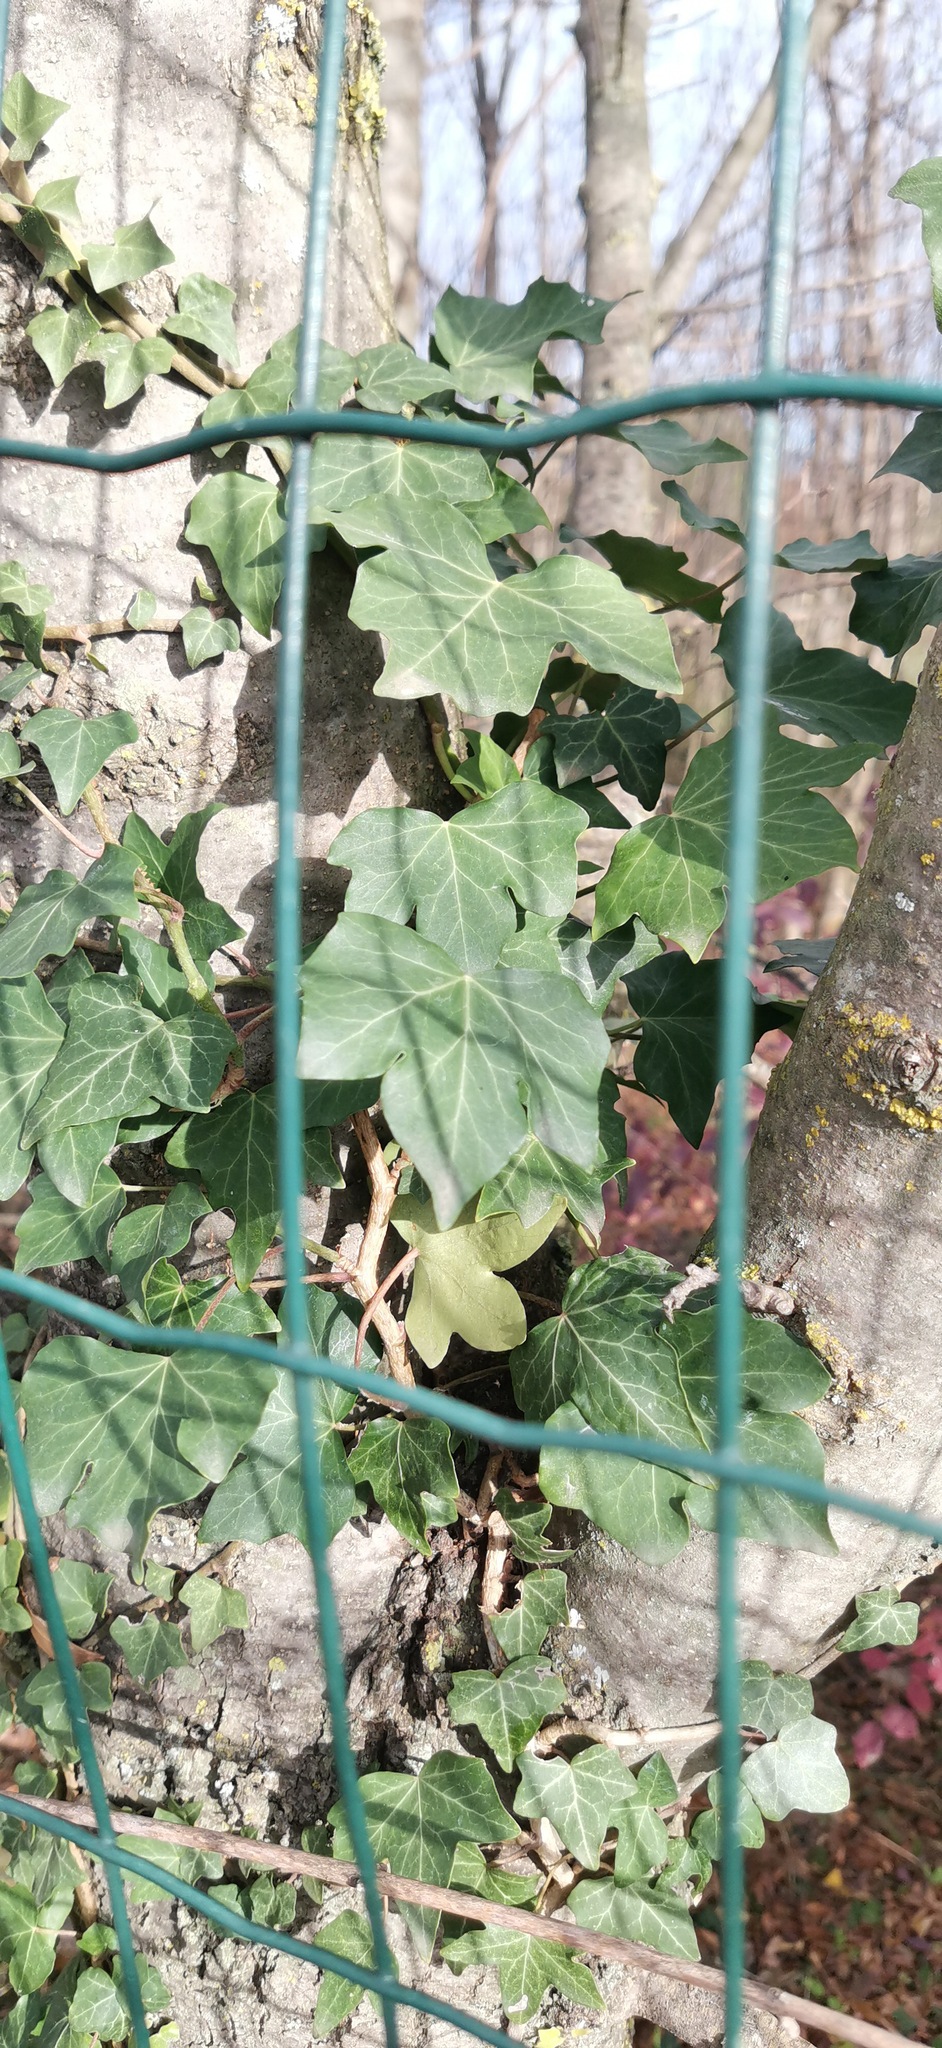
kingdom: Plantae
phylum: Tracheophyta
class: Magnoliopsida
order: Apiales
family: Araliaceae
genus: Hedera
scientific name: Hedera helix
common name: Ivy
